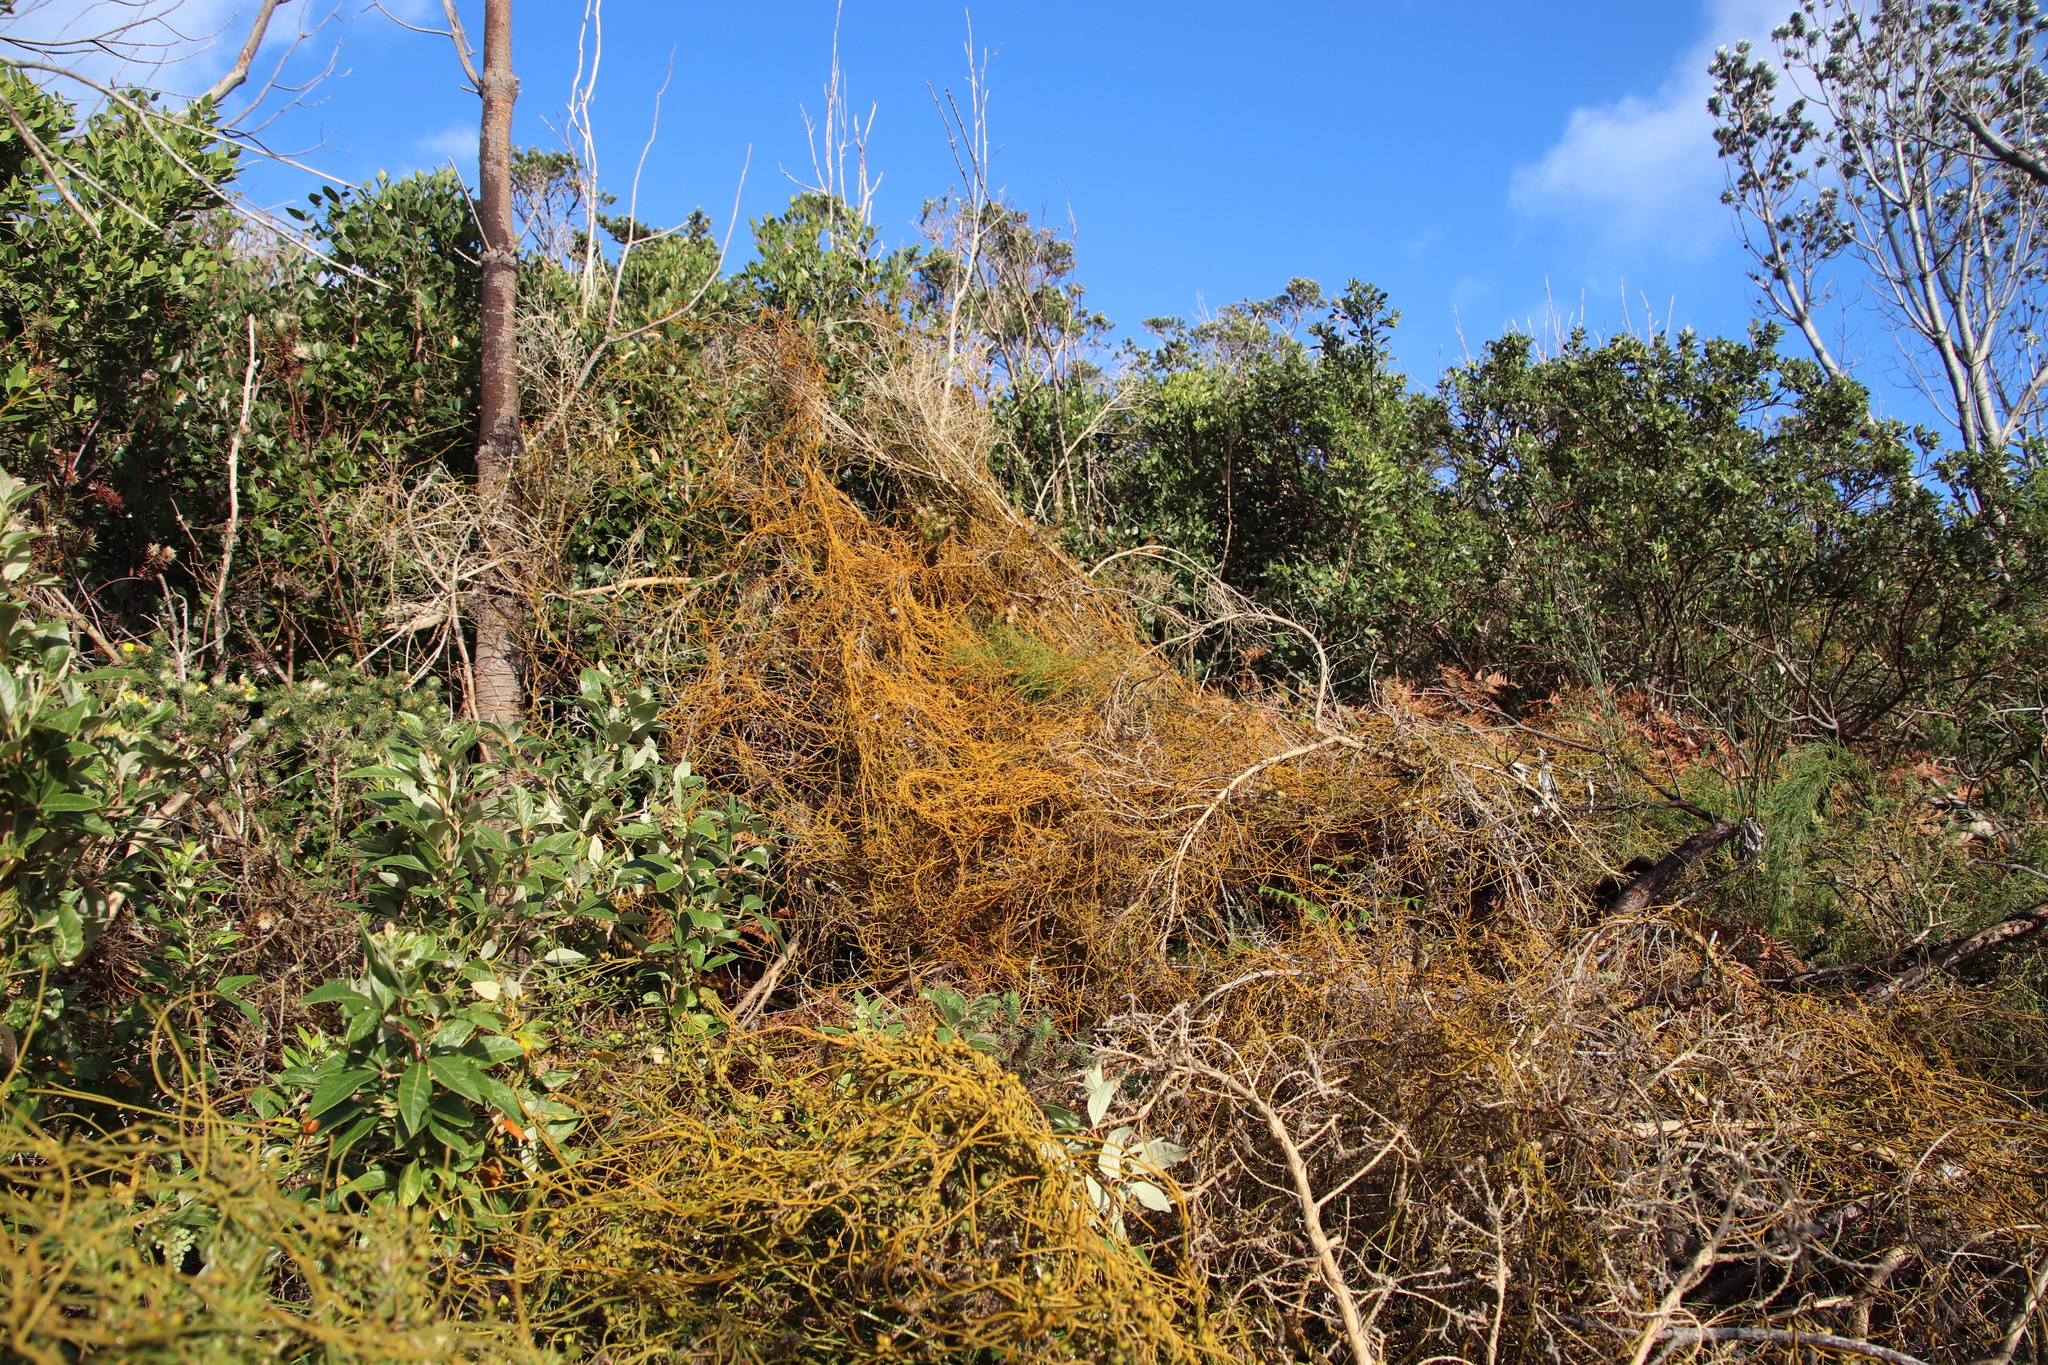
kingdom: Plantae
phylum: Tracheophyta
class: Magnoliopsida
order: Laurales
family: Lauraceae
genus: Cassytha
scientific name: Cassytha ciliolata
